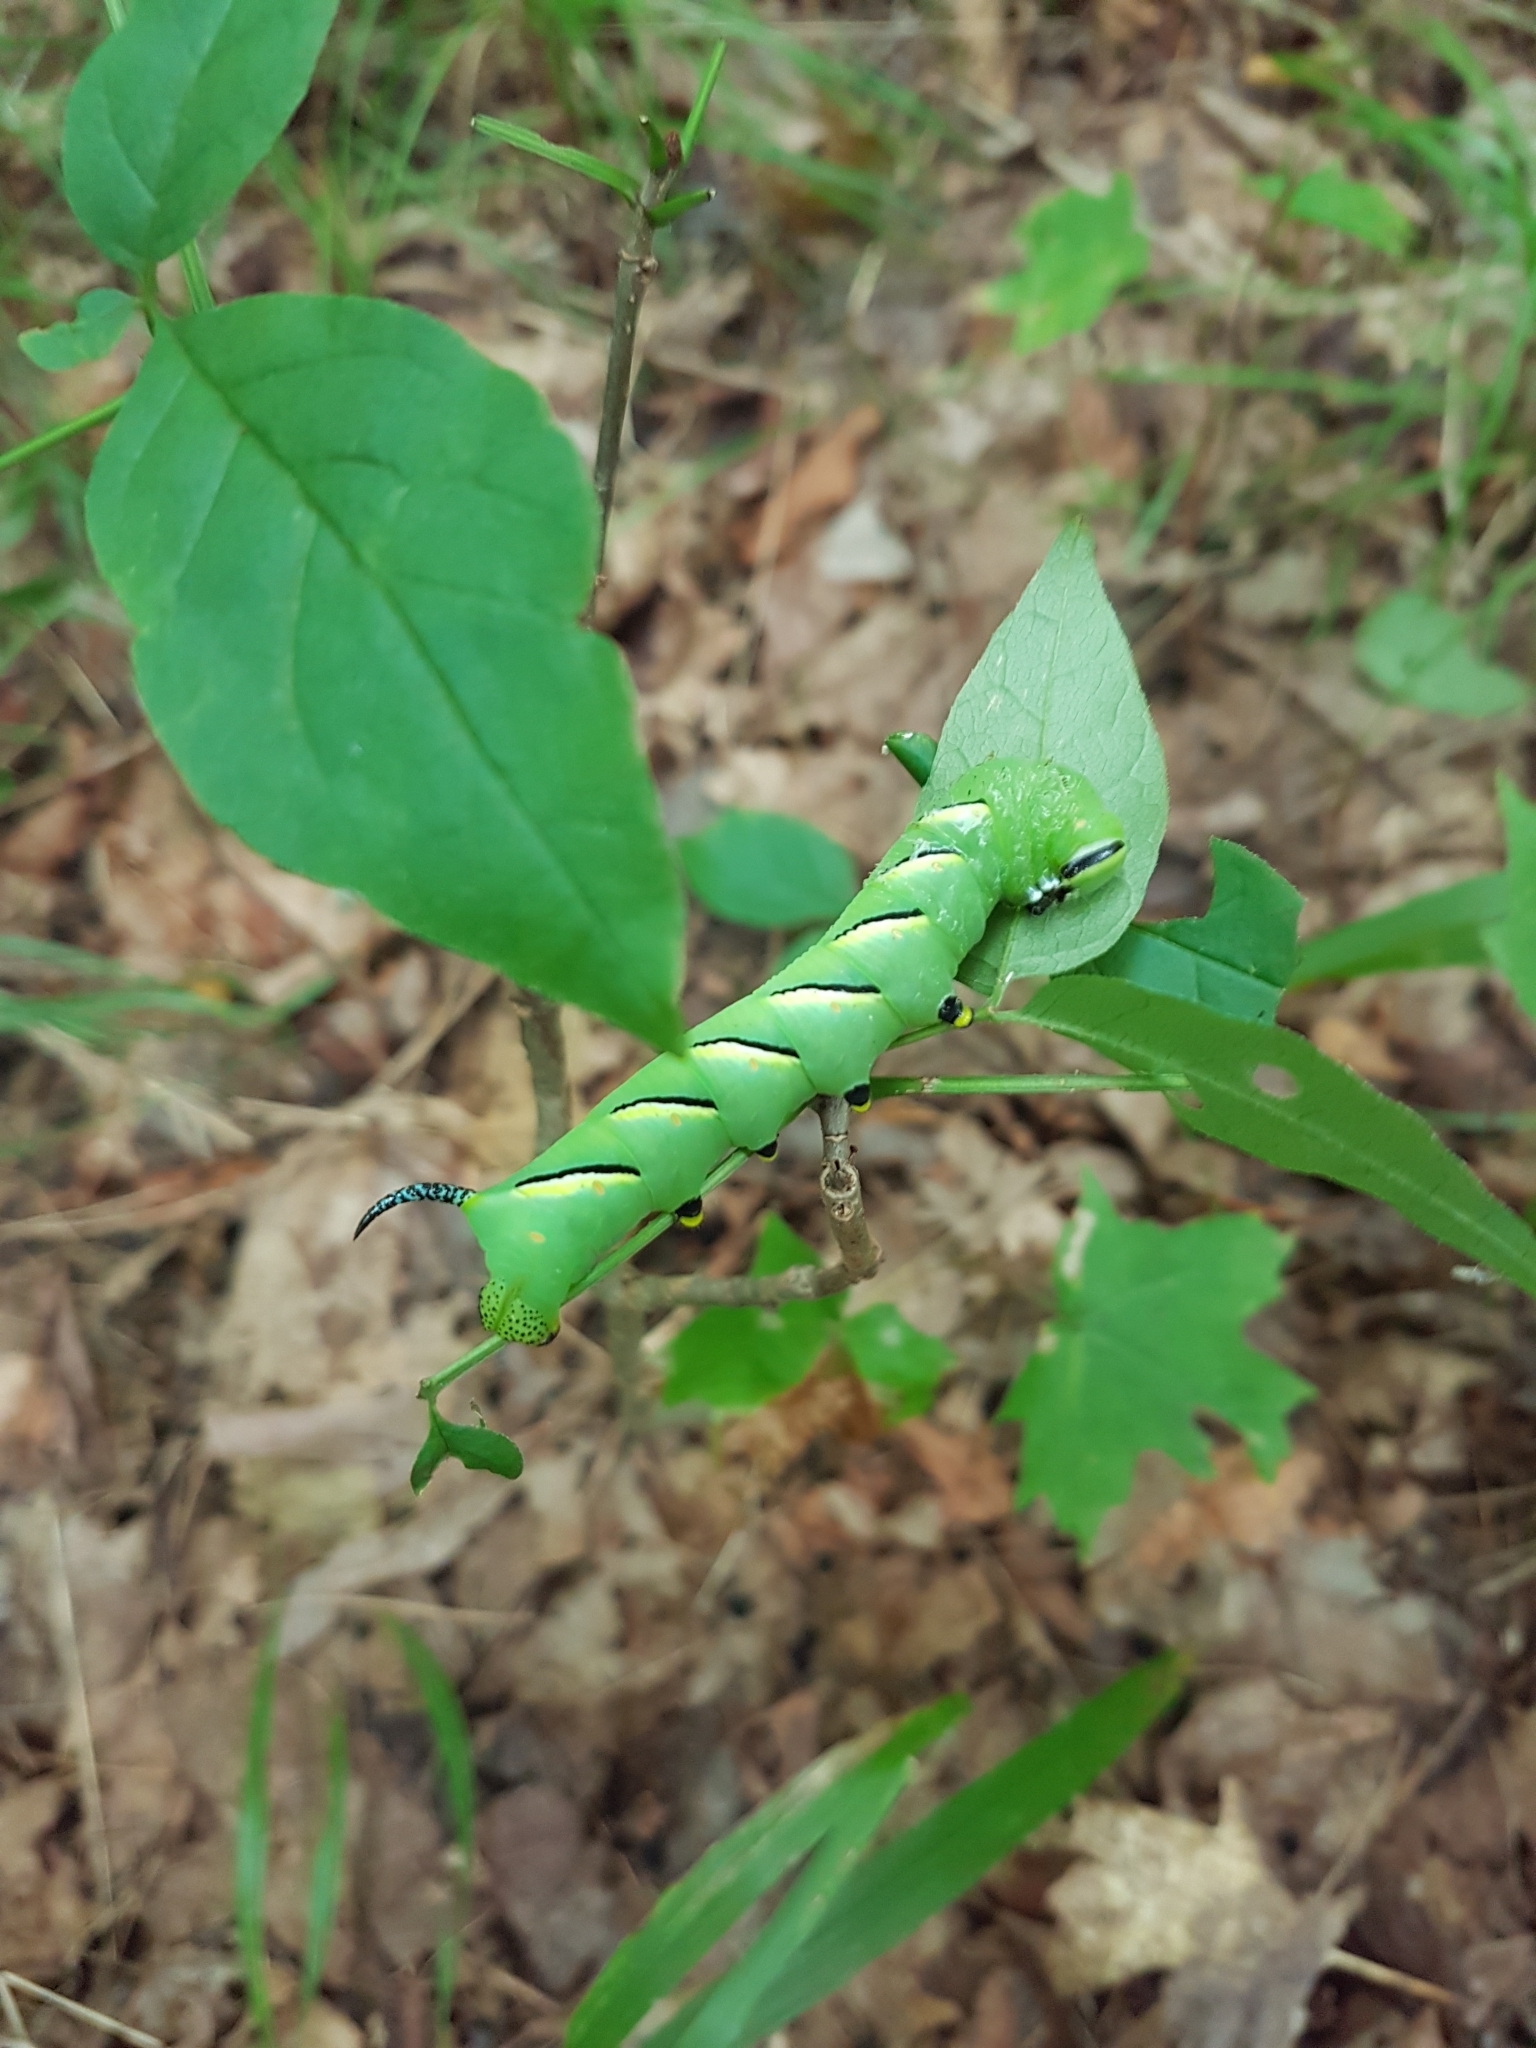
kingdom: Animalia
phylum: Arthropoda
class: Insecta
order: Lepidoptera
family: Sphingidae
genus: Sphinx
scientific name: Sphinx kalmiae
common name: Laurel sphinx
